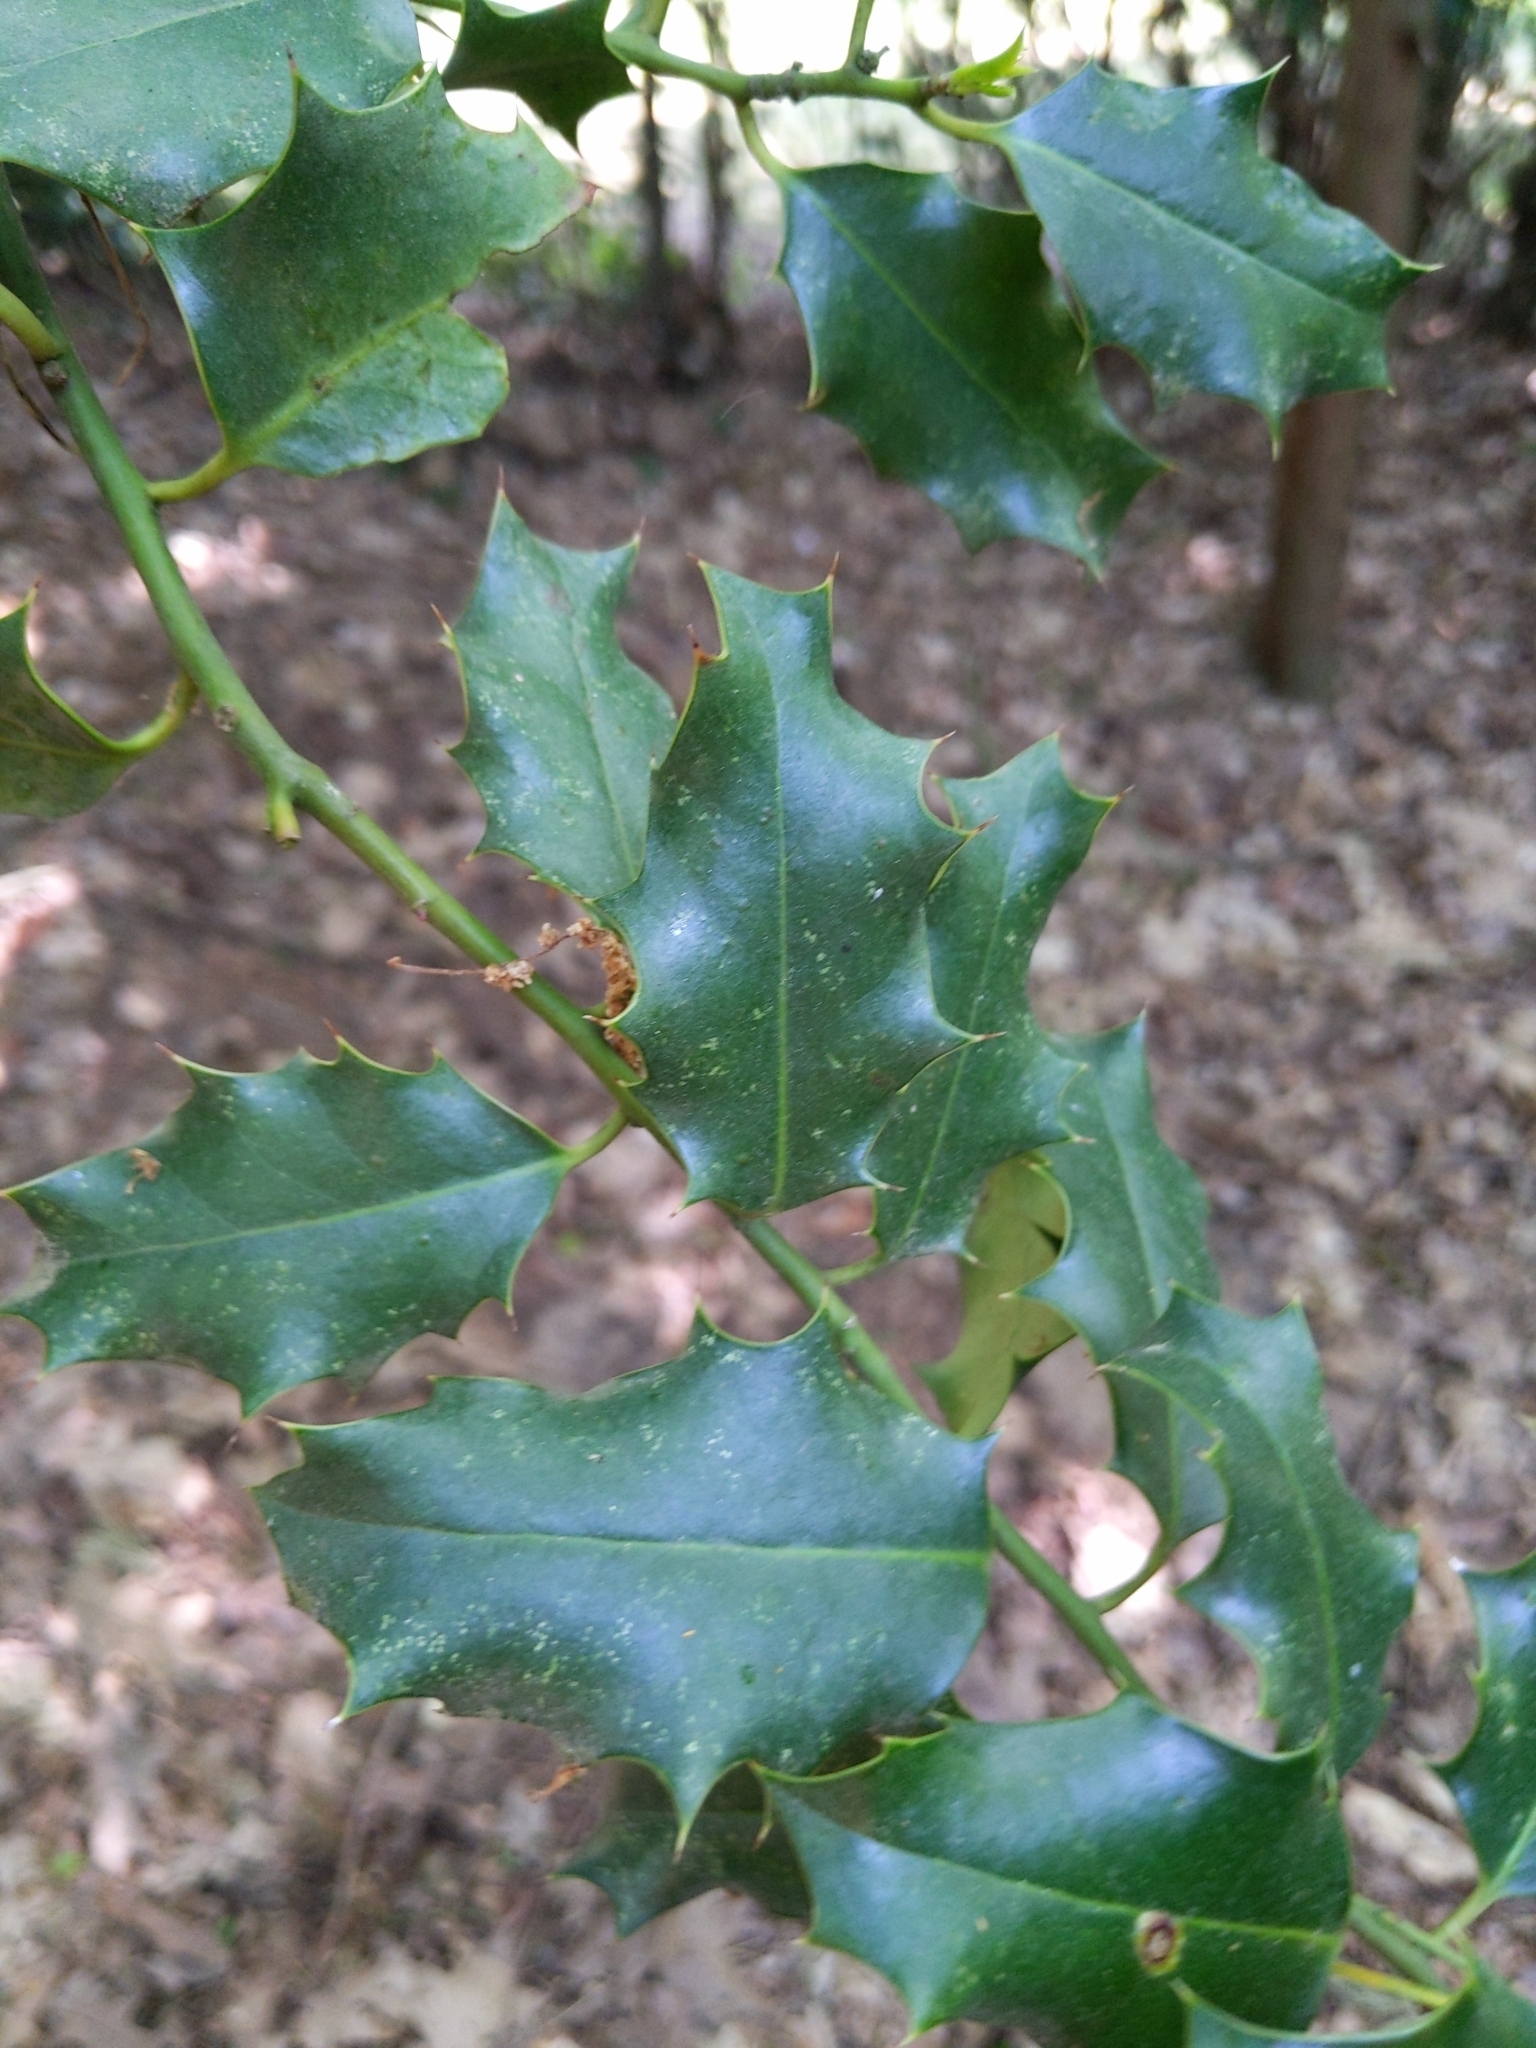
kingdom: Plantae
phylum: Tracheophyta
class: Magnoliopsida
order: Aquifoliales
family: Aquifoliaceae
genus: Ilex
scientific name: Ilex aquifolium
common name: English holly
